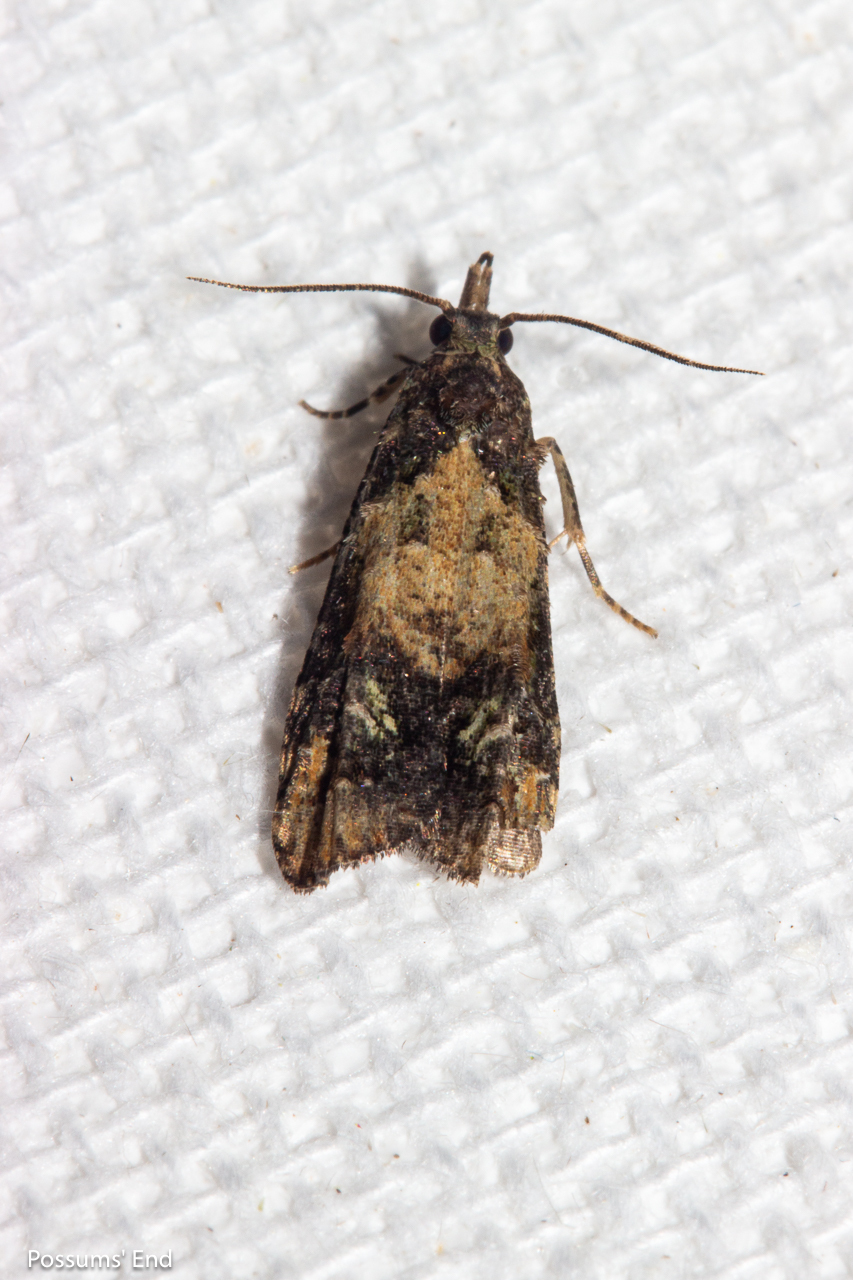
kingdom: Animalia
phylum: Arthropoda
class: Insecta
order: Lepidoptera
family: Copromorphidae
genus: Phycomorpha
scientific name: Phycomorpha metachrysa
